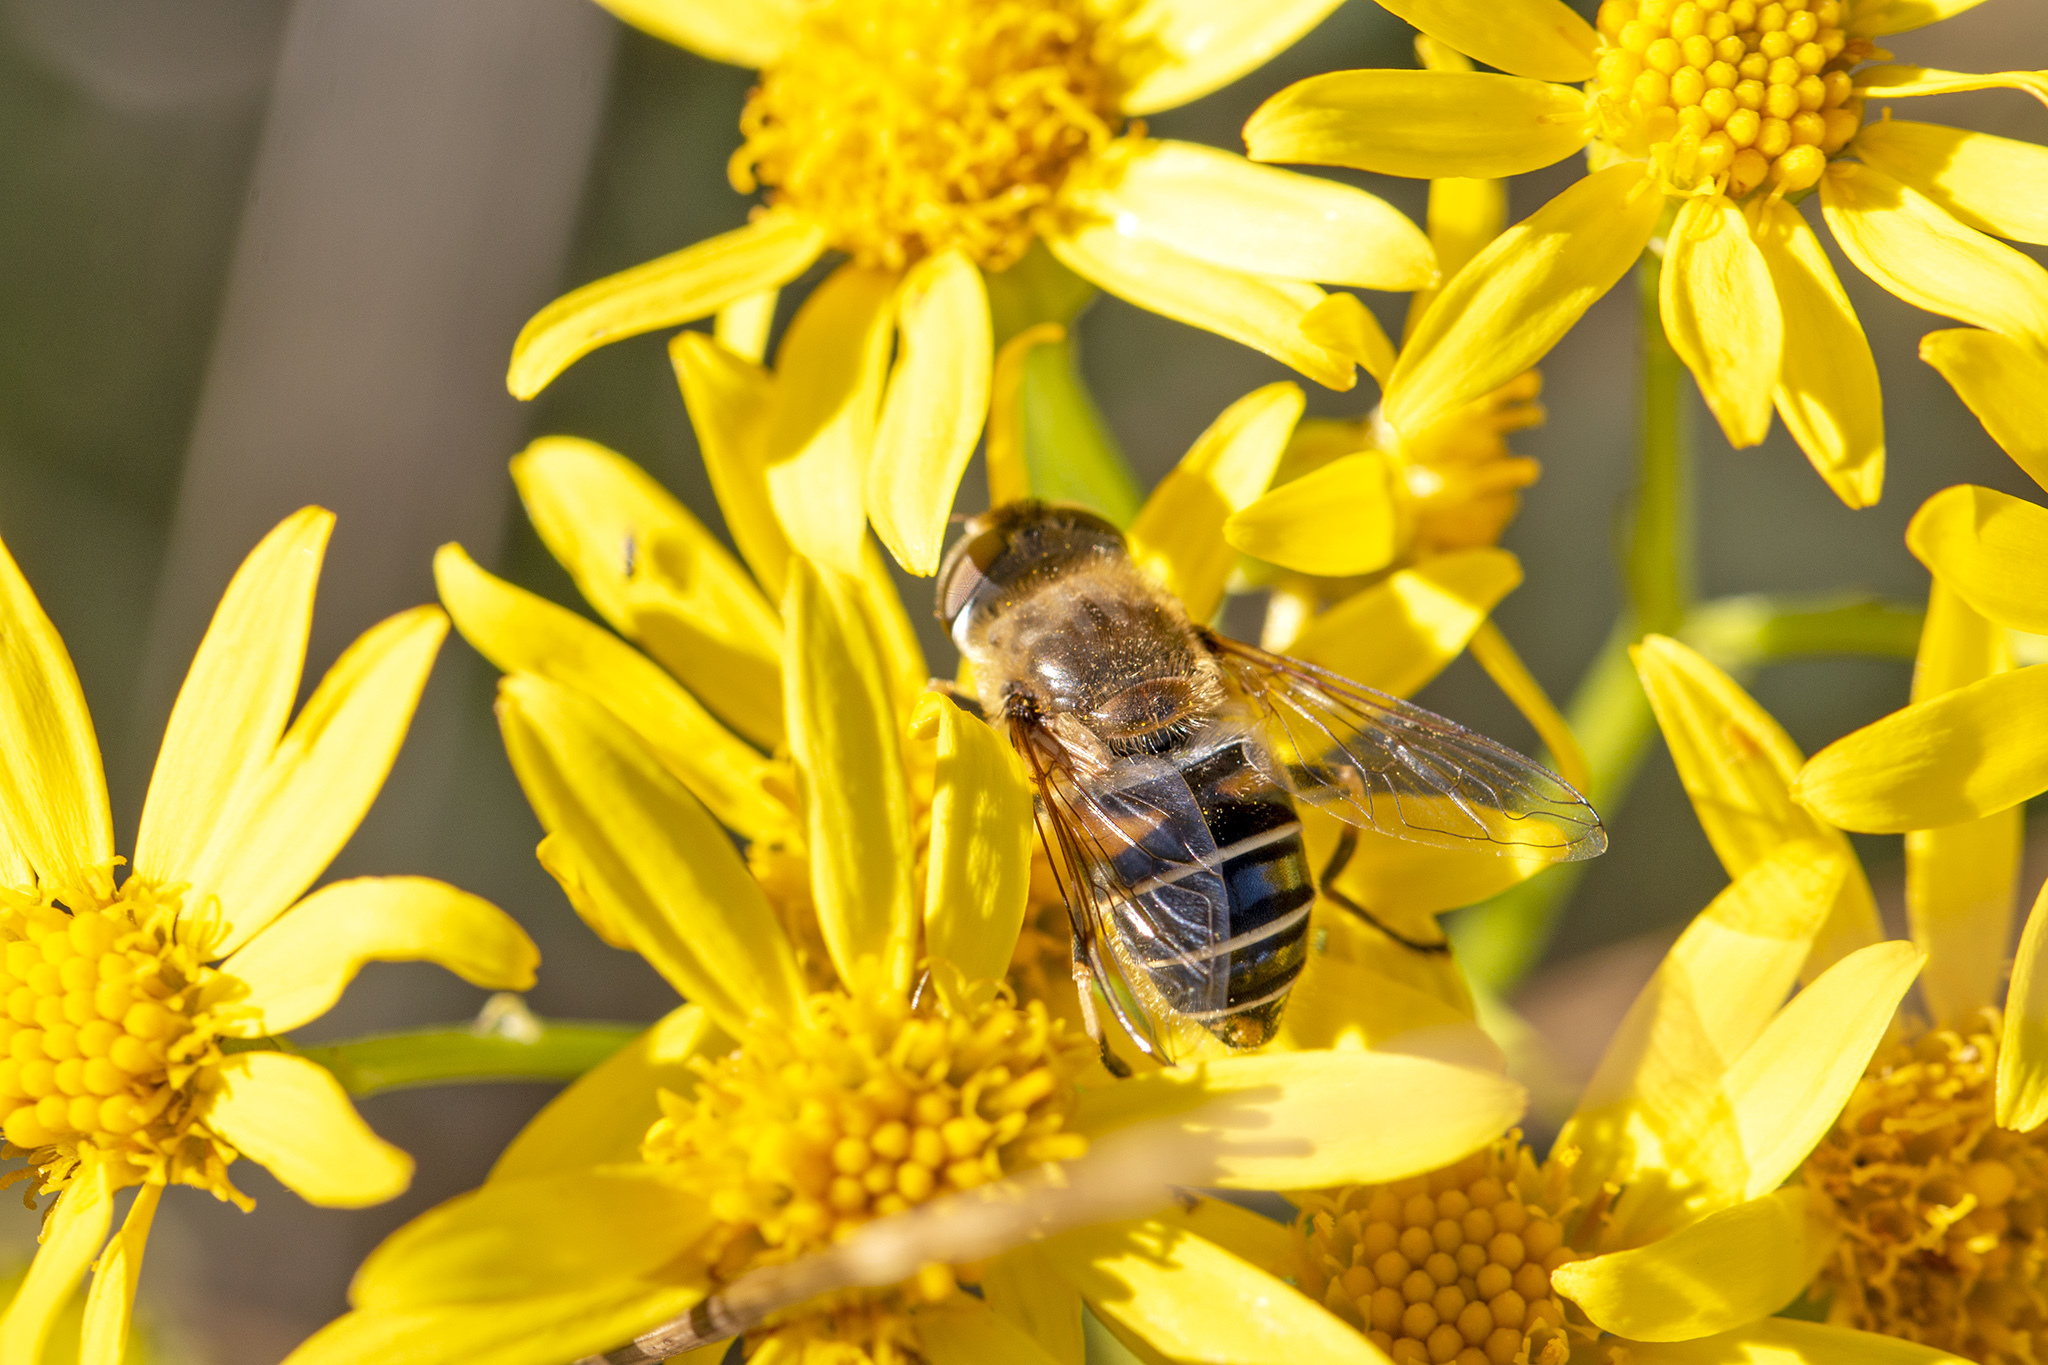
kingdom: Animalia
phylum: Arthropoda
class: Insecta
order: Diptera
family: Syrphidae
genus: Eristalis
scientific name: Eristalis nemorum
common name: Orange-spined drone fly
